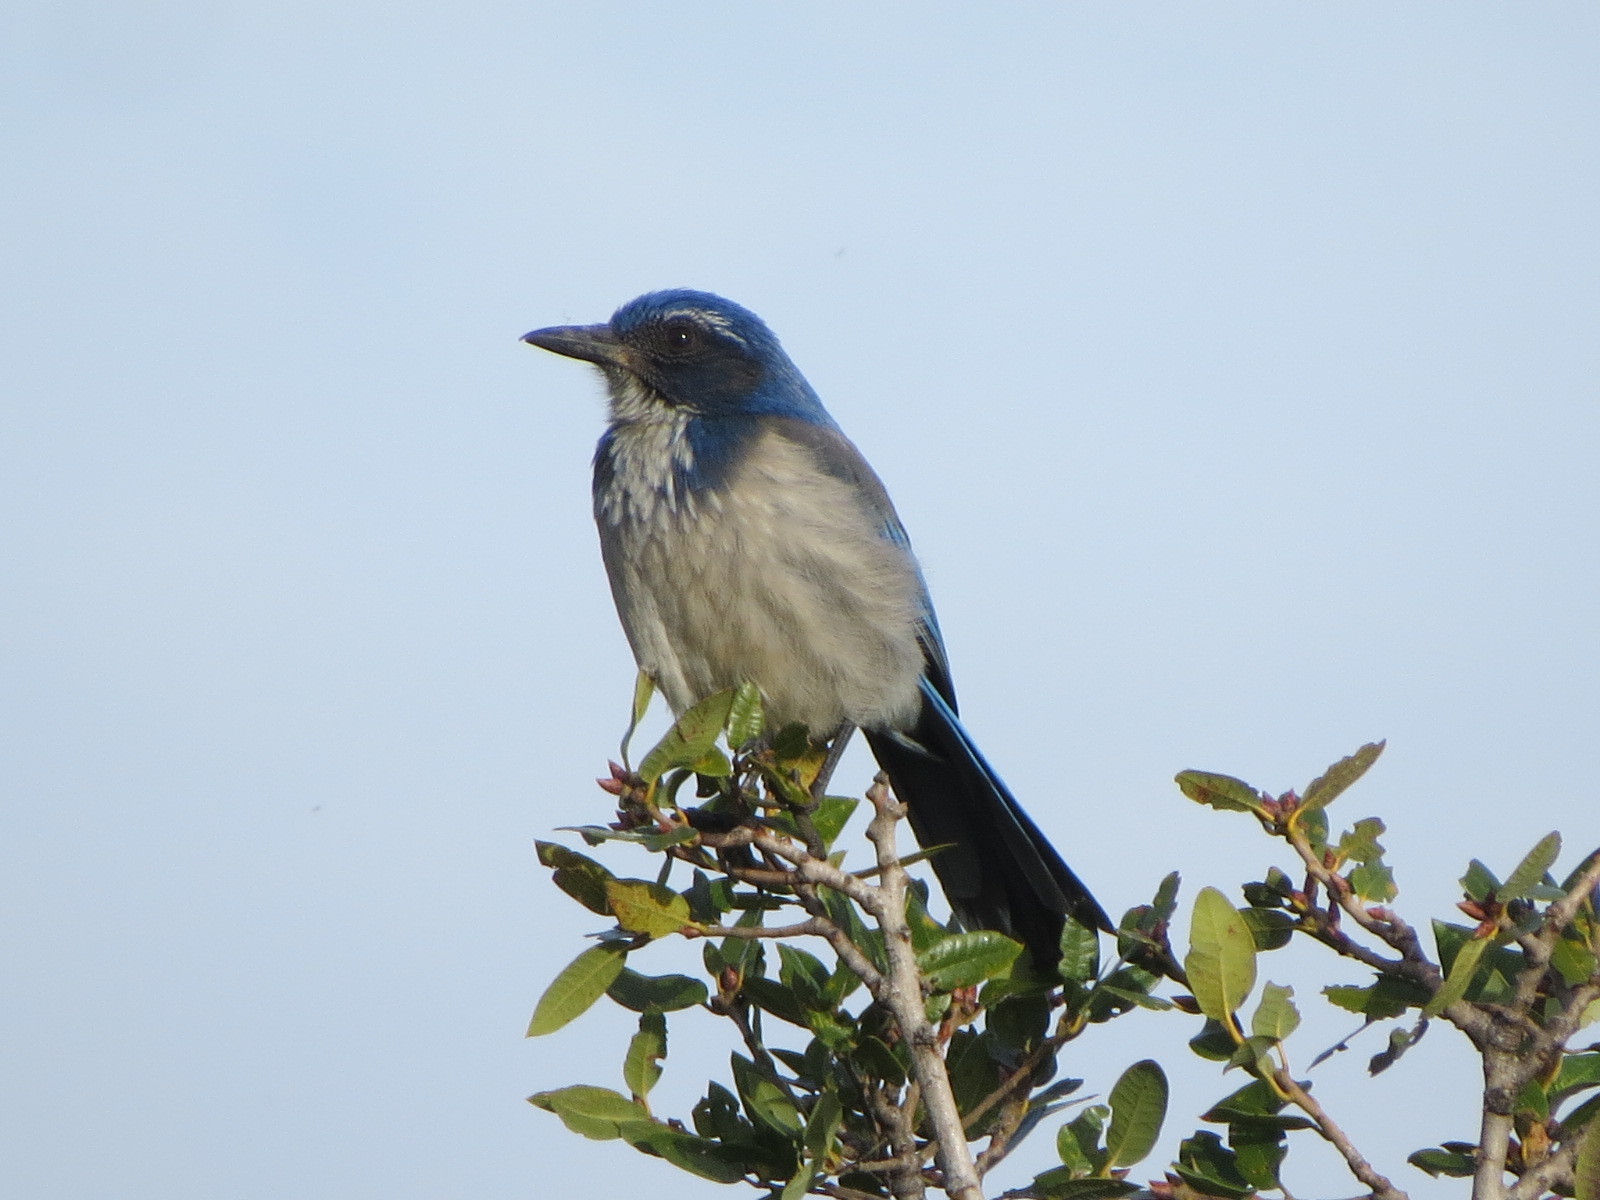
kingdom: Animalia
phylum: Chordata
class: Aves
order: Passeriformes
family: Corvidae
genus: Aphelocoma
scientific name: Aphelocoma californica
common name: California scrub-jay
